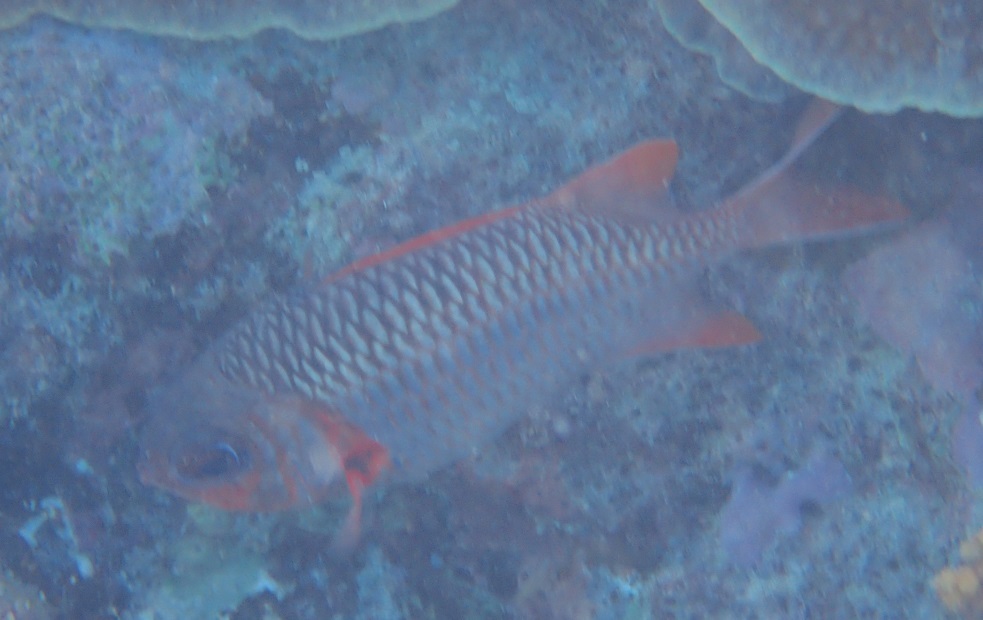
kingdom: Animalia
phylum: Chordata
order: Beryciformes
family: Holocentridae
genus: Myripristis
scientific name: Myripristis violacea
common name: Lattice soldierfish
